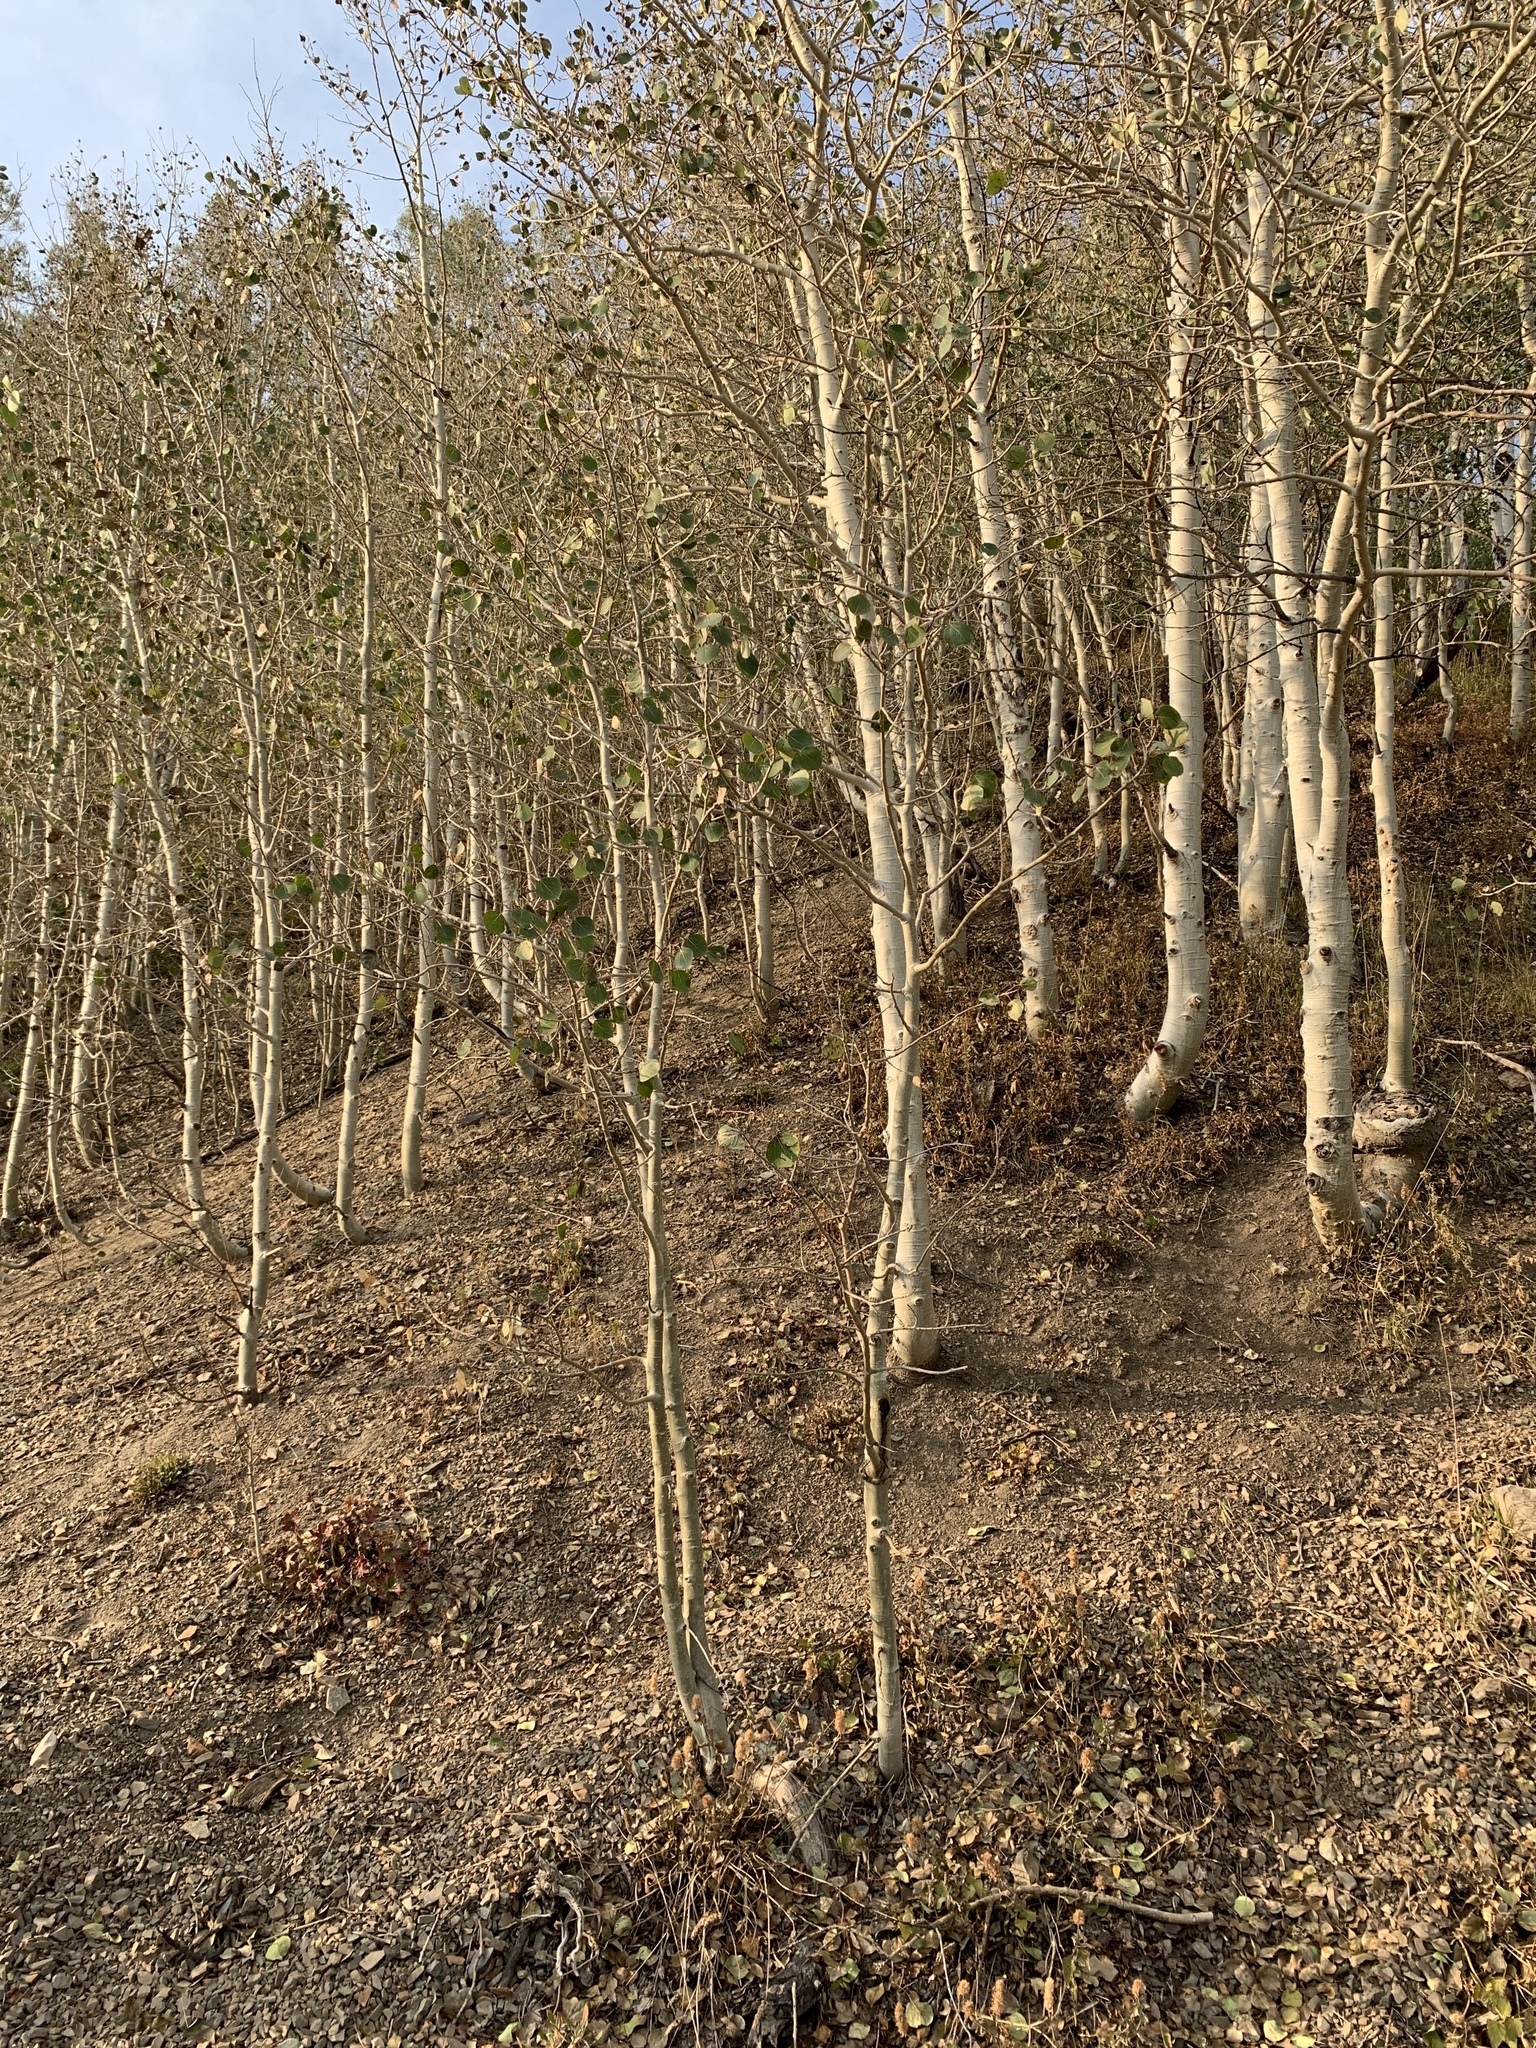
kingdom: Plantae
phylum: Tracheophyta
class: Magnoliopsida
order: Malpighiales
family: Salicaceae
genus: Populus
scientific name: Populus tremuloides
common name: Quaking aspen
